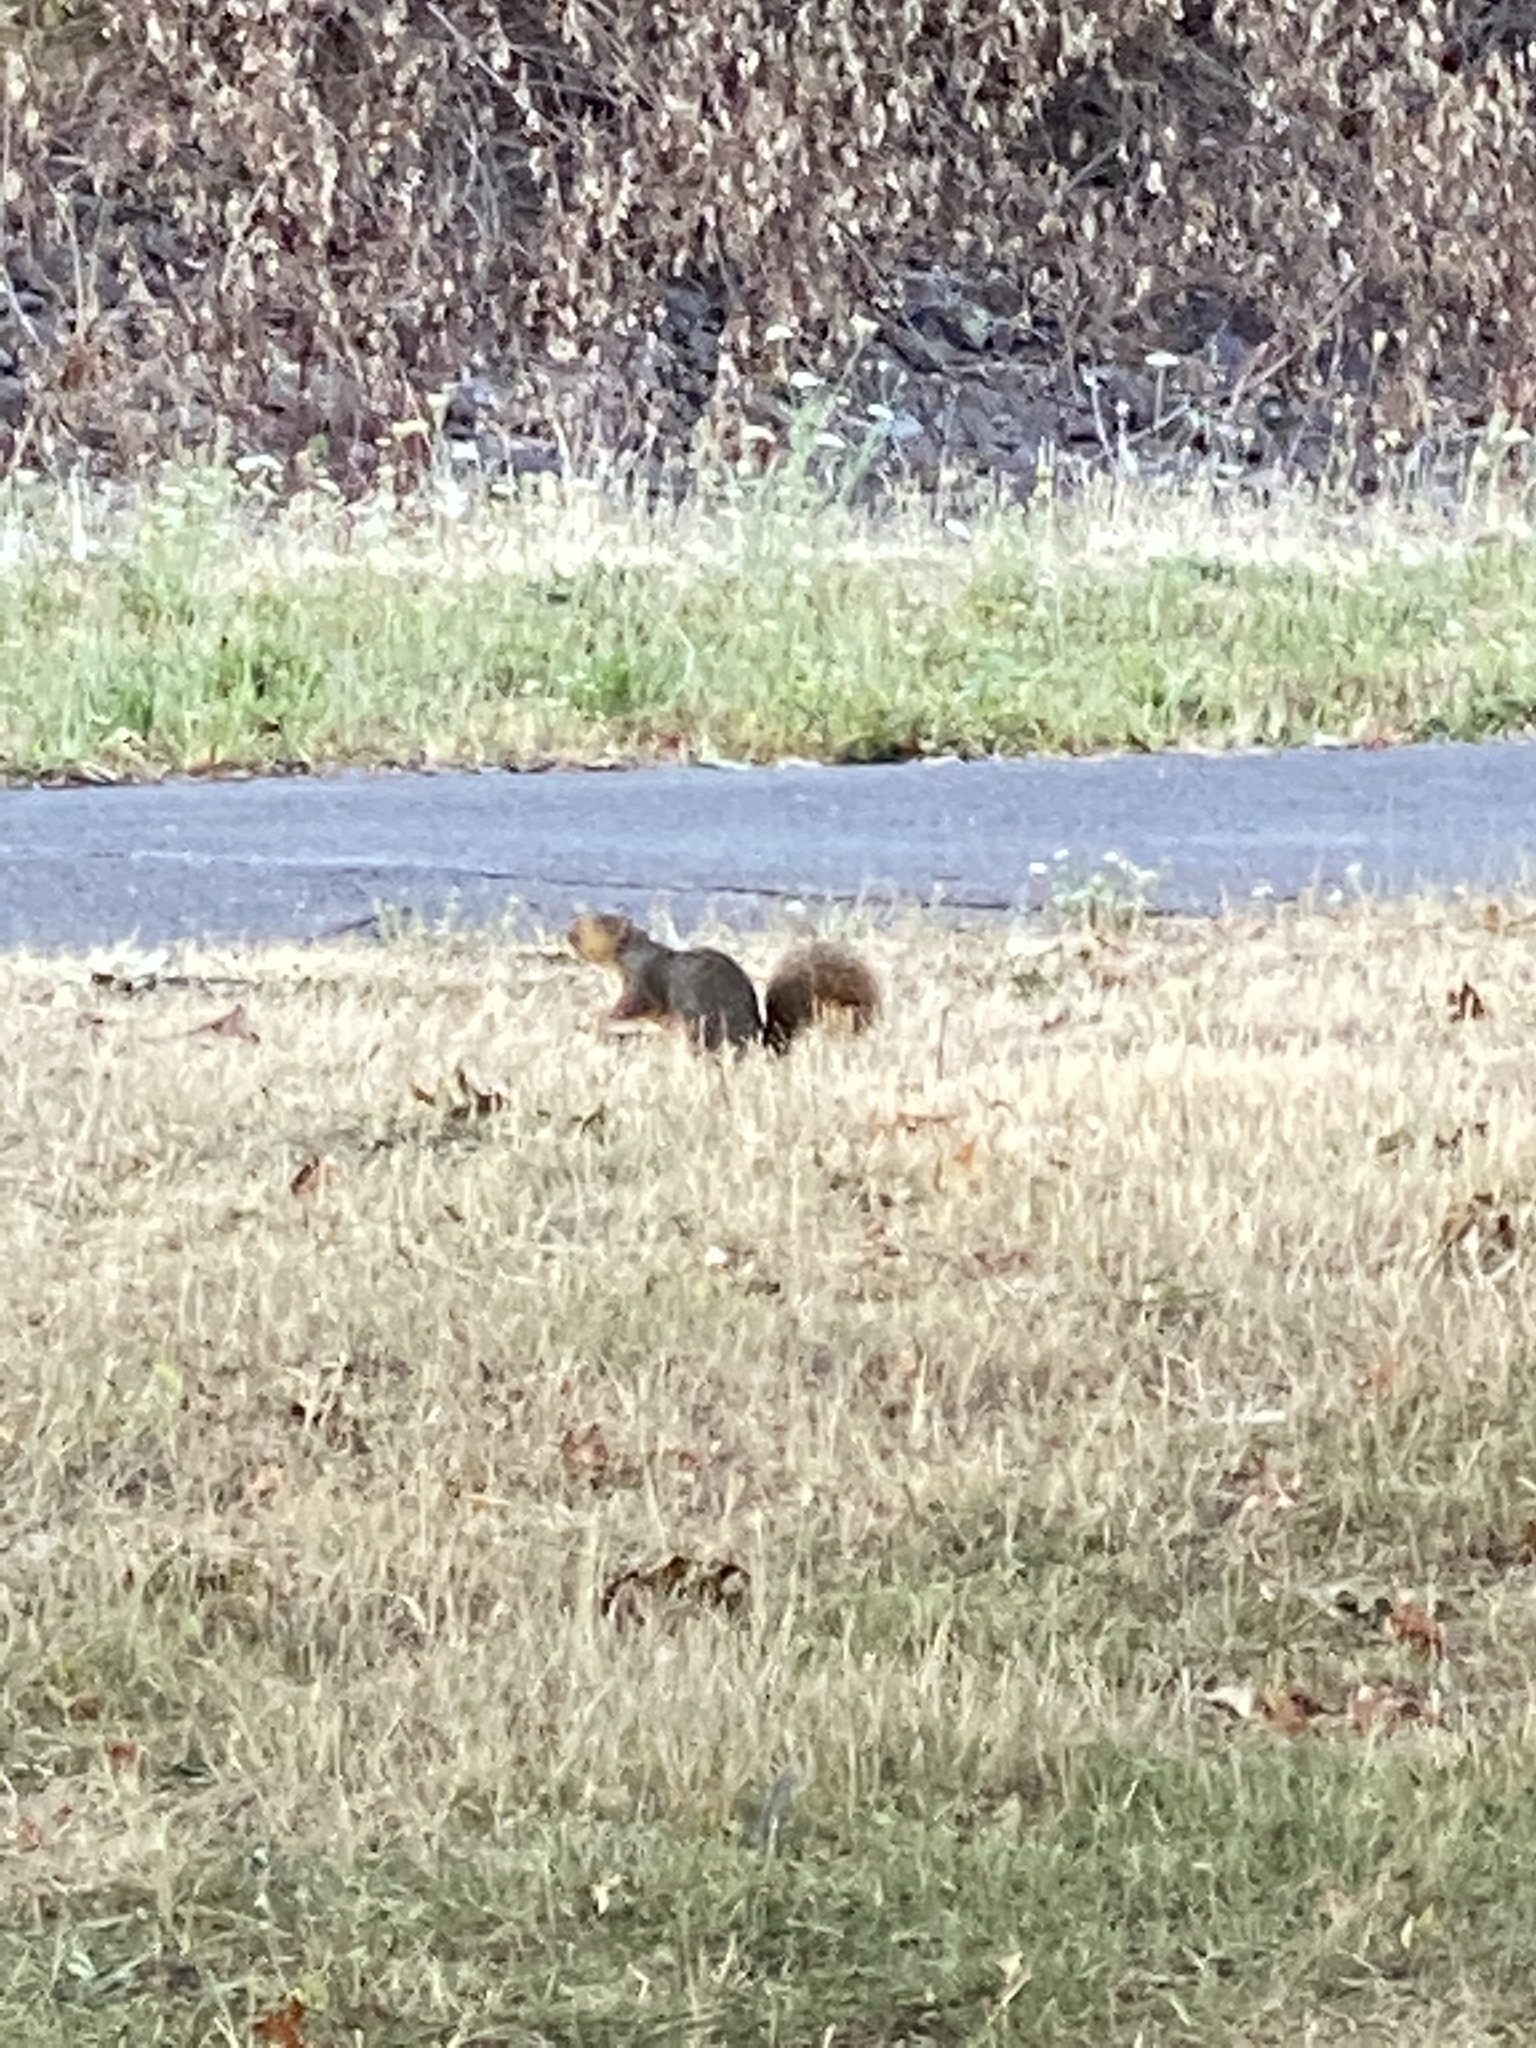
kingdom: Animalia
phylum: Chordata
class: Mammalia
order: Rodentia
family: Sciuridae
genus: Sciurus
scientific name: Sciurus carolinensis
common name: Eastern gray squirrel
